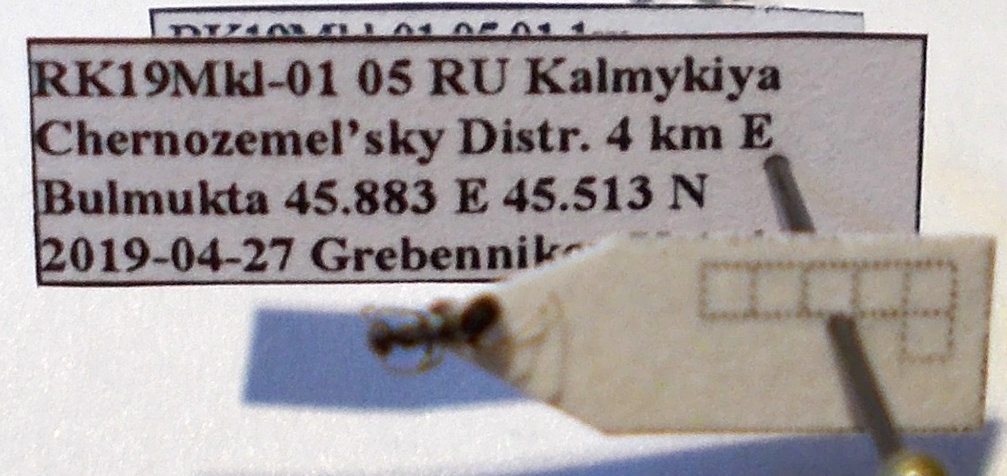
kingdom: Animalia
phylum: Arthropoda
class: Insecta
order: Hymenoptera
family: Formicidae
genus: Proformica
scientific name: Proformica epinotalis
